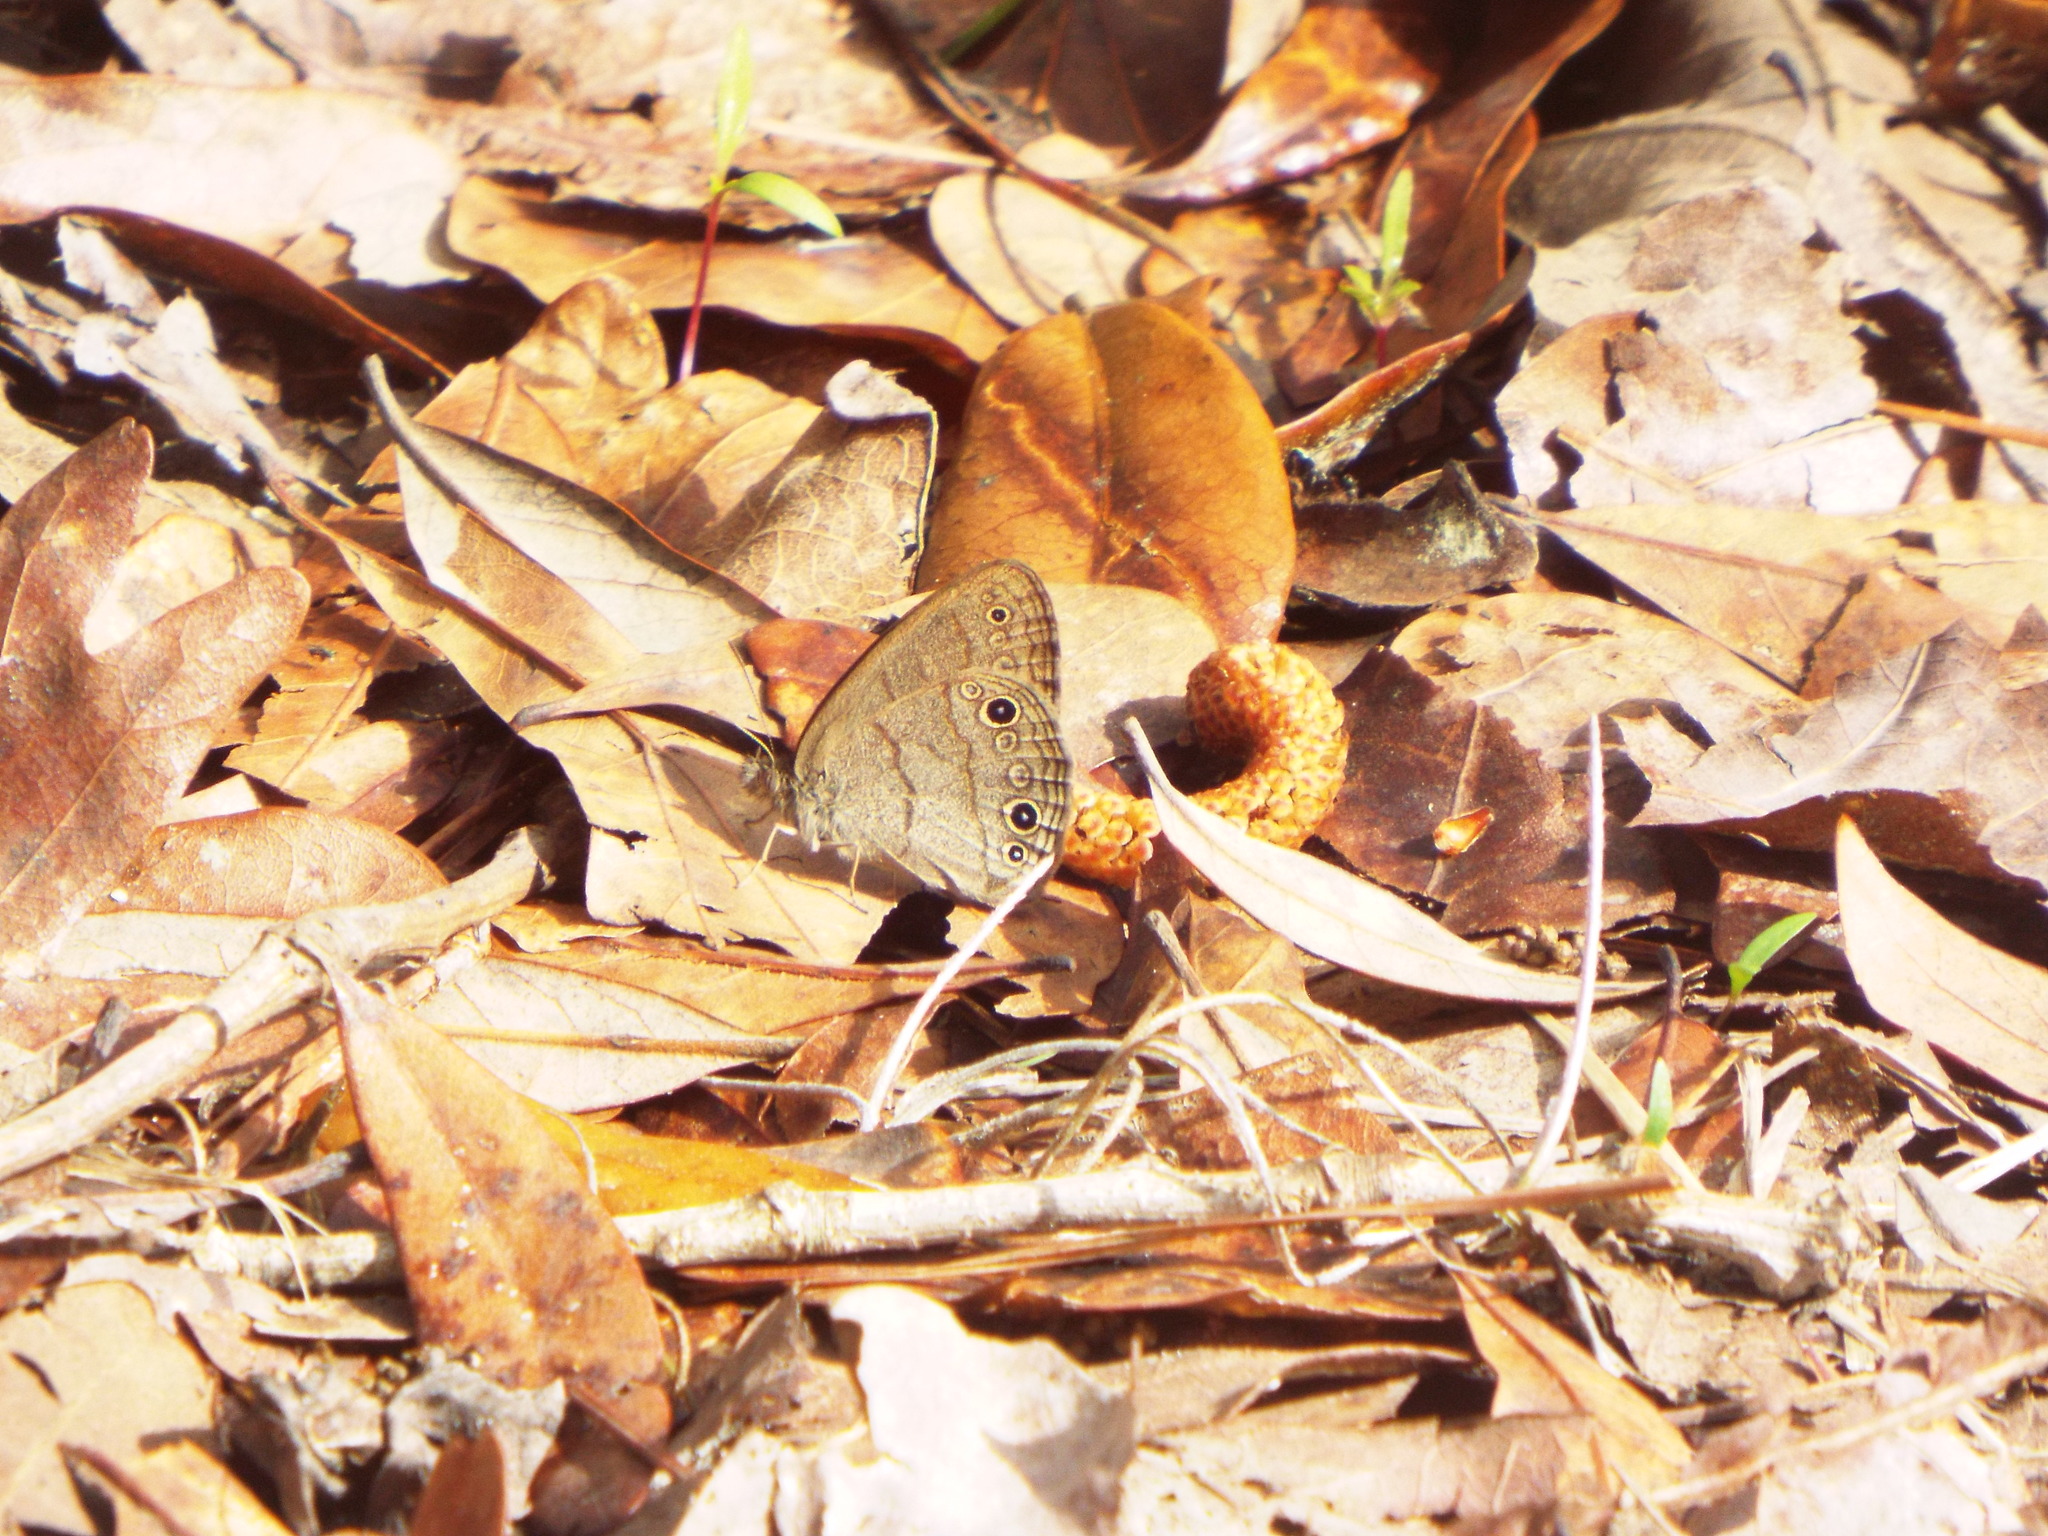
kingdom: Animalia
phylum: Arthropoda
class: Insecta
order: Lepidoptera
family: Nymphalidae
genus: Hermeuptychia
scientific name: Hermeuptychia hermes
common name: Hermes satyr
